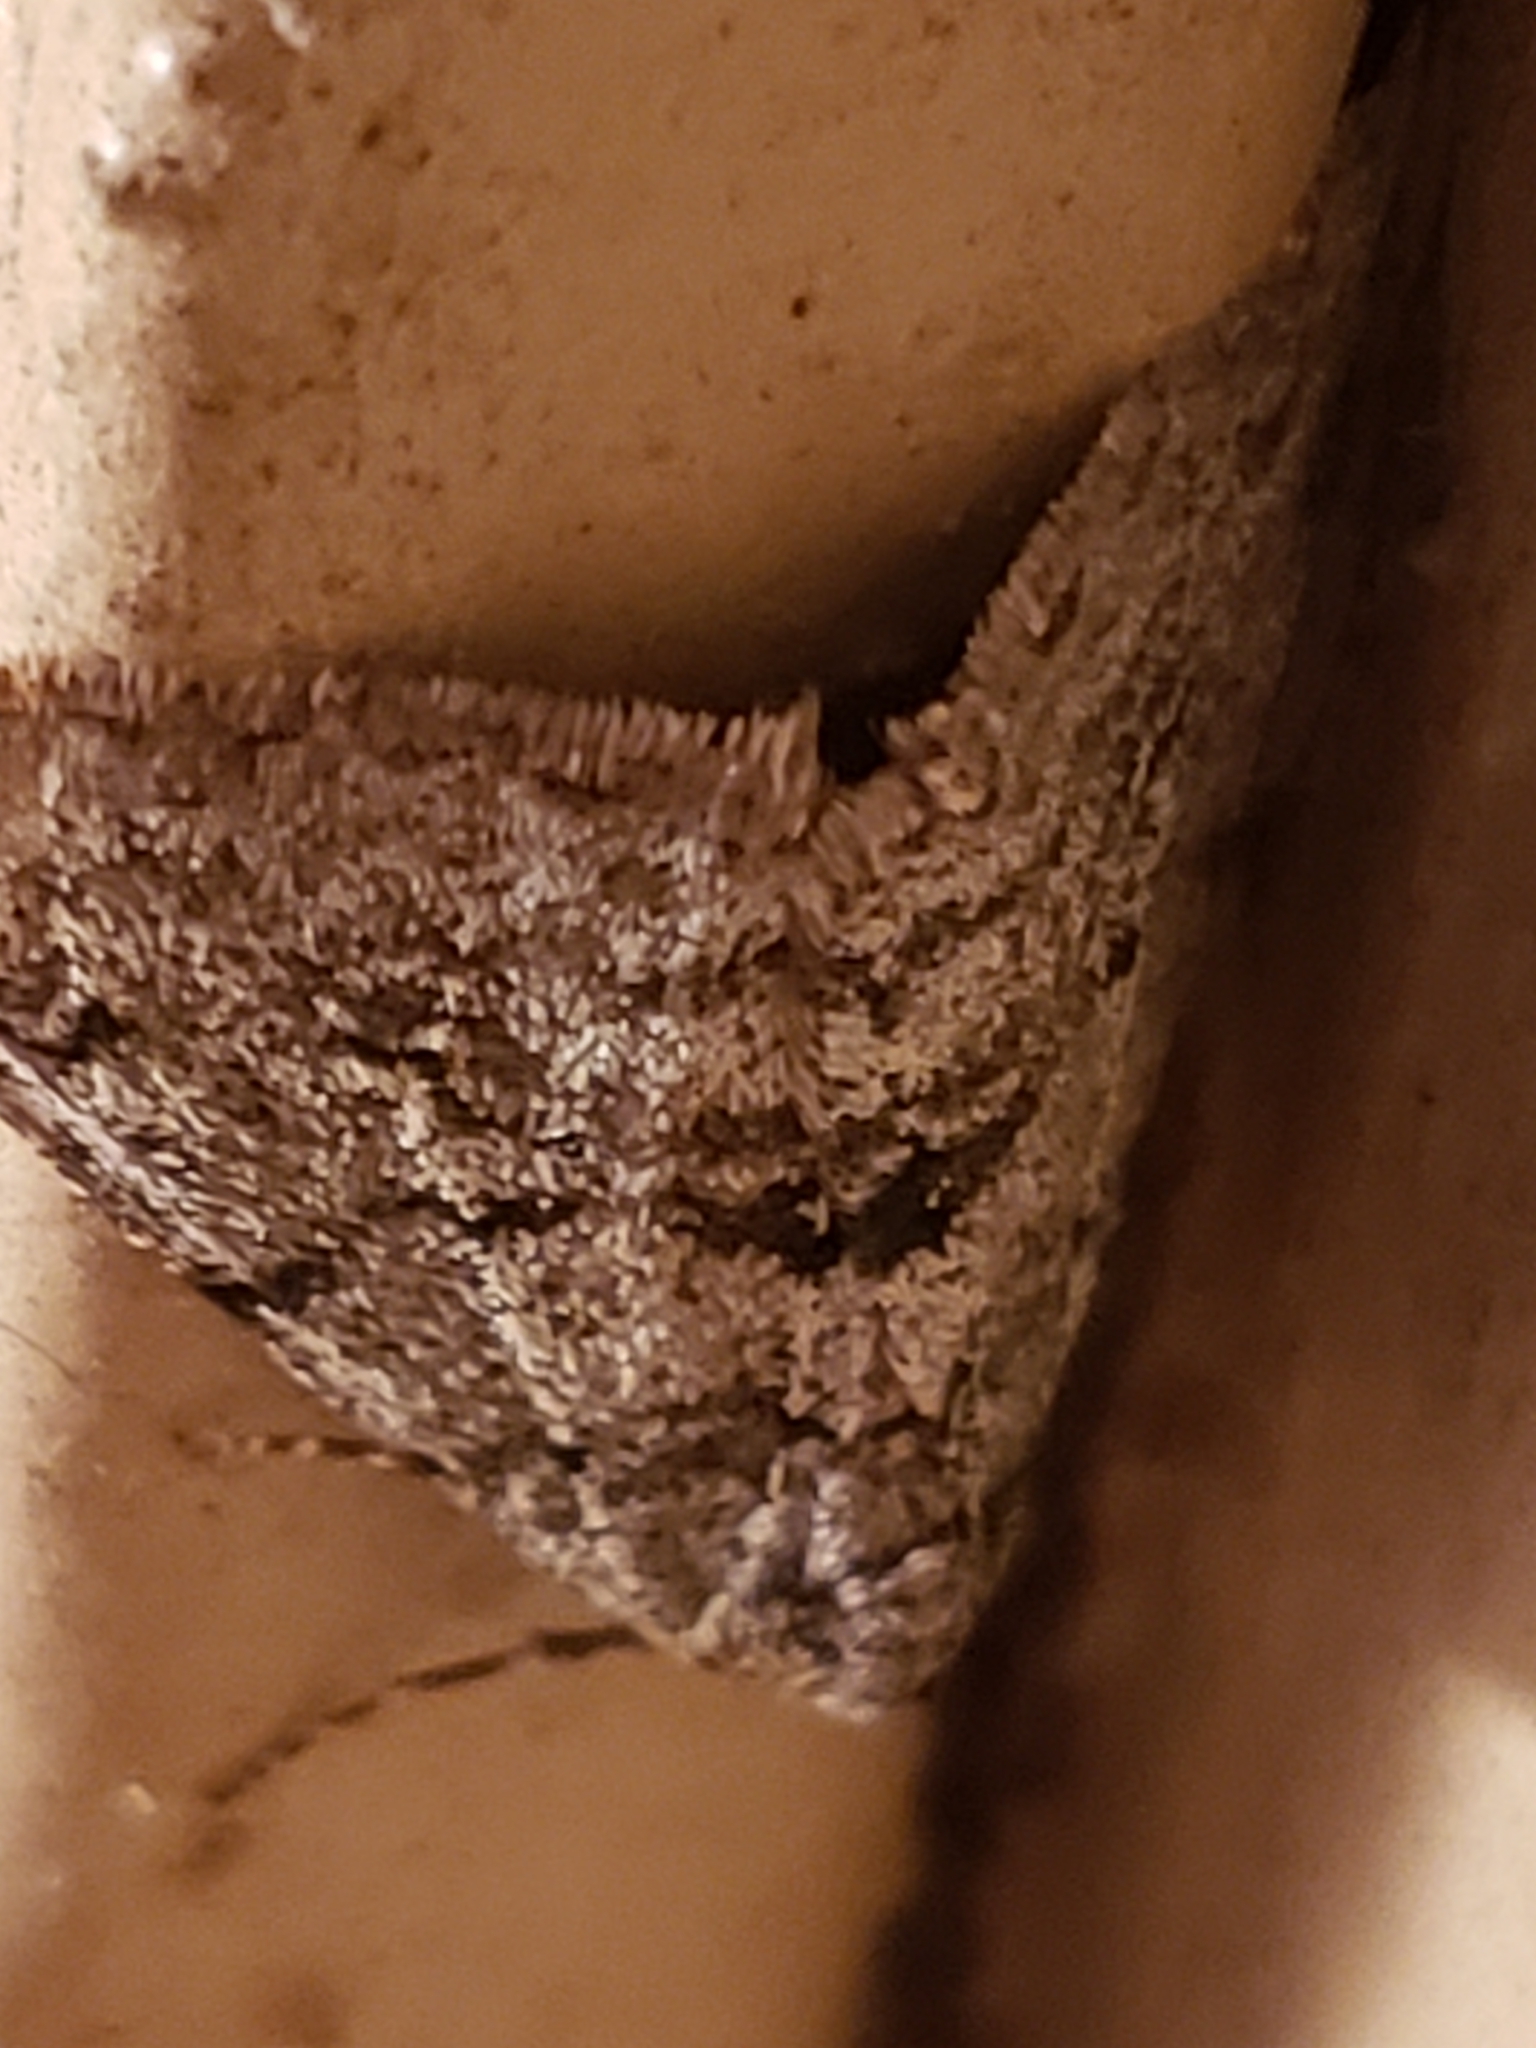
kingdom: Animalia
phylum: Arthropoda
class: Insecta
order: Lepidoptera
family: Geometridae
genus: Phigalia
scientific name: Phigalia strigataria
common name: Small phigalia
